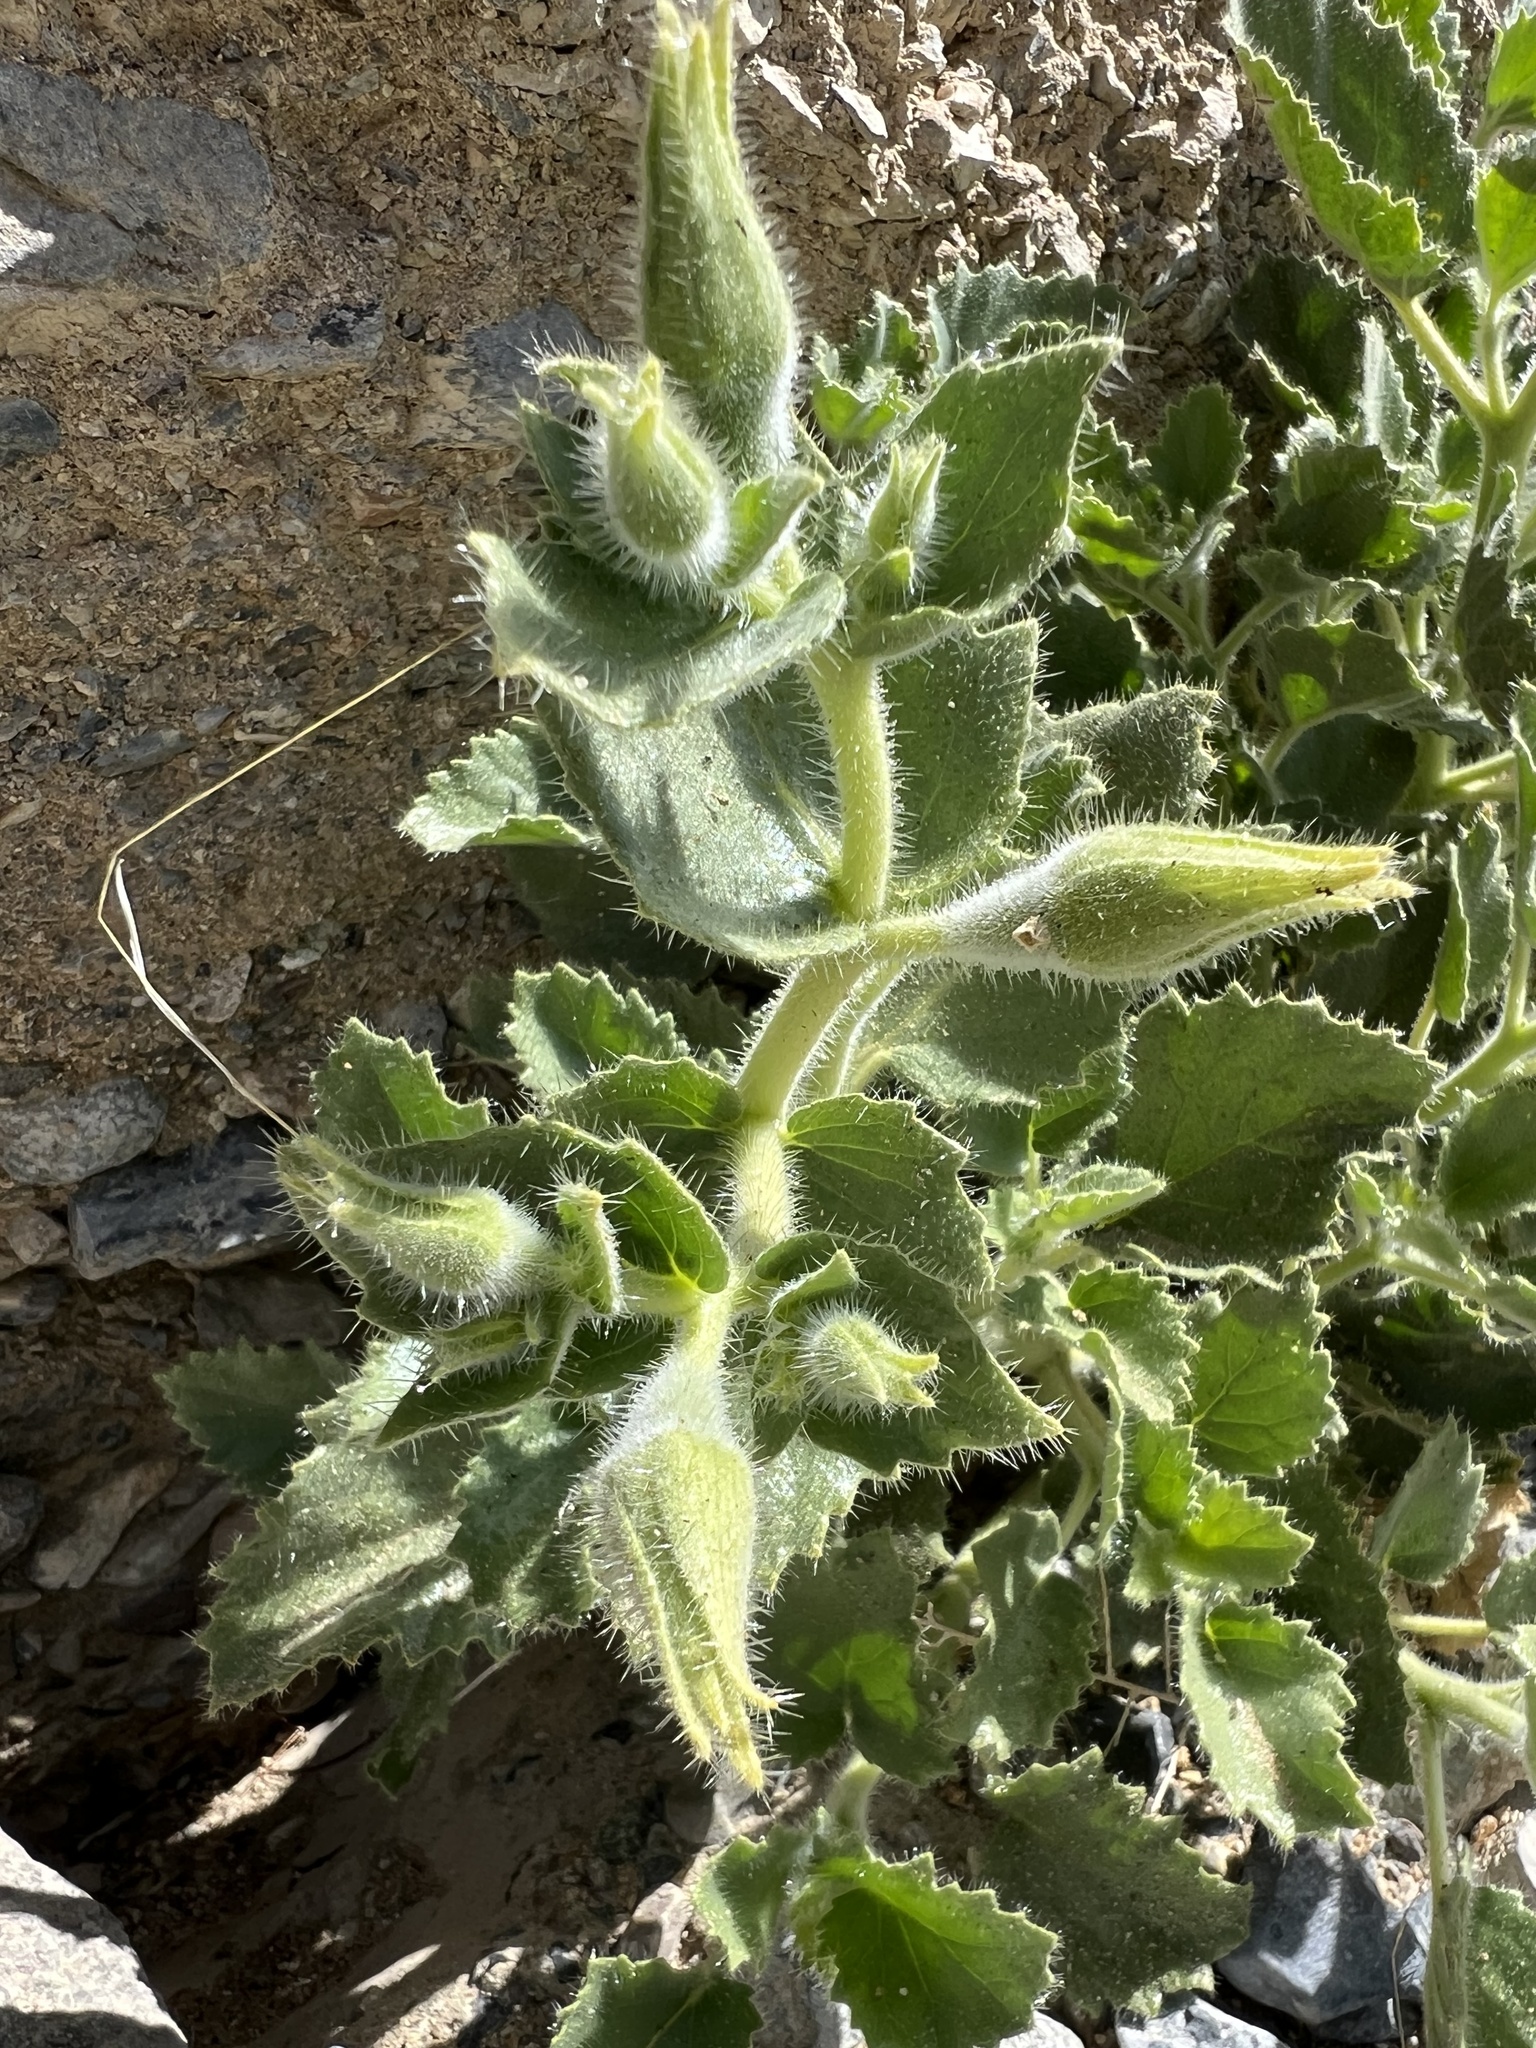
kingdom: Plantae
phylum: Tracheophyta
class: Magnoliopsida
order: Cornales
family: Loasaceae
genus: Eucnide
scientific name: Eucnide urens
